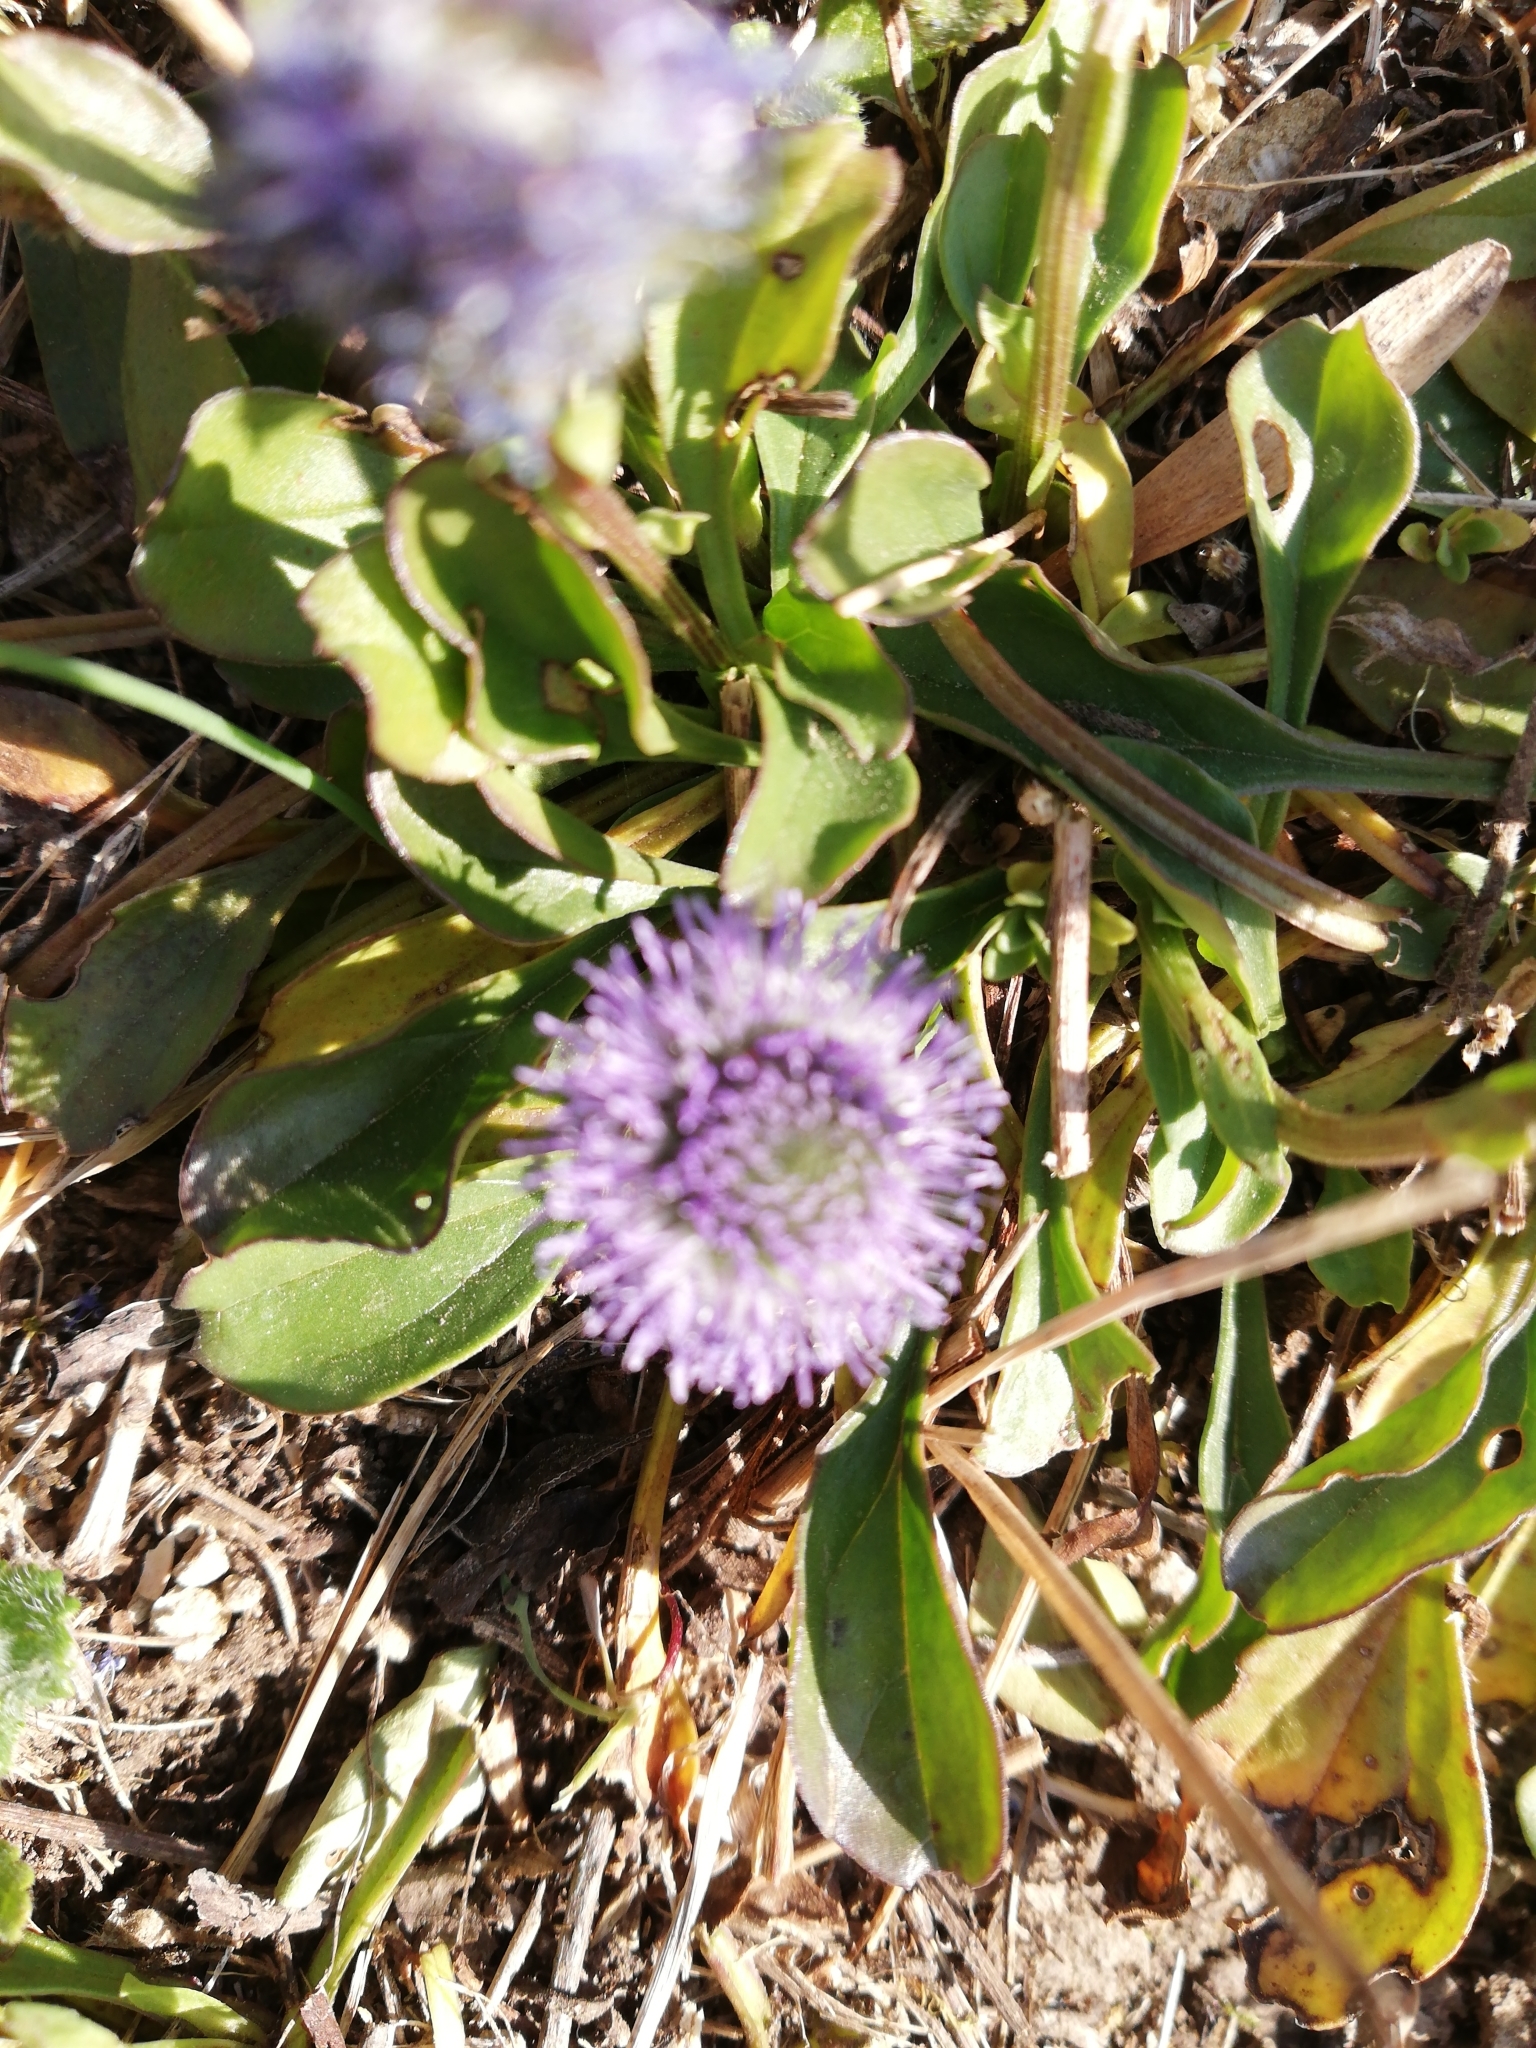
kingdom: Plantae
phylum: Tracheophyta
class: Magnoliopsida
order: Lamiales
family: Plantaginaceae
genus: Globularia
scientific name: Globularia bisnagarica
